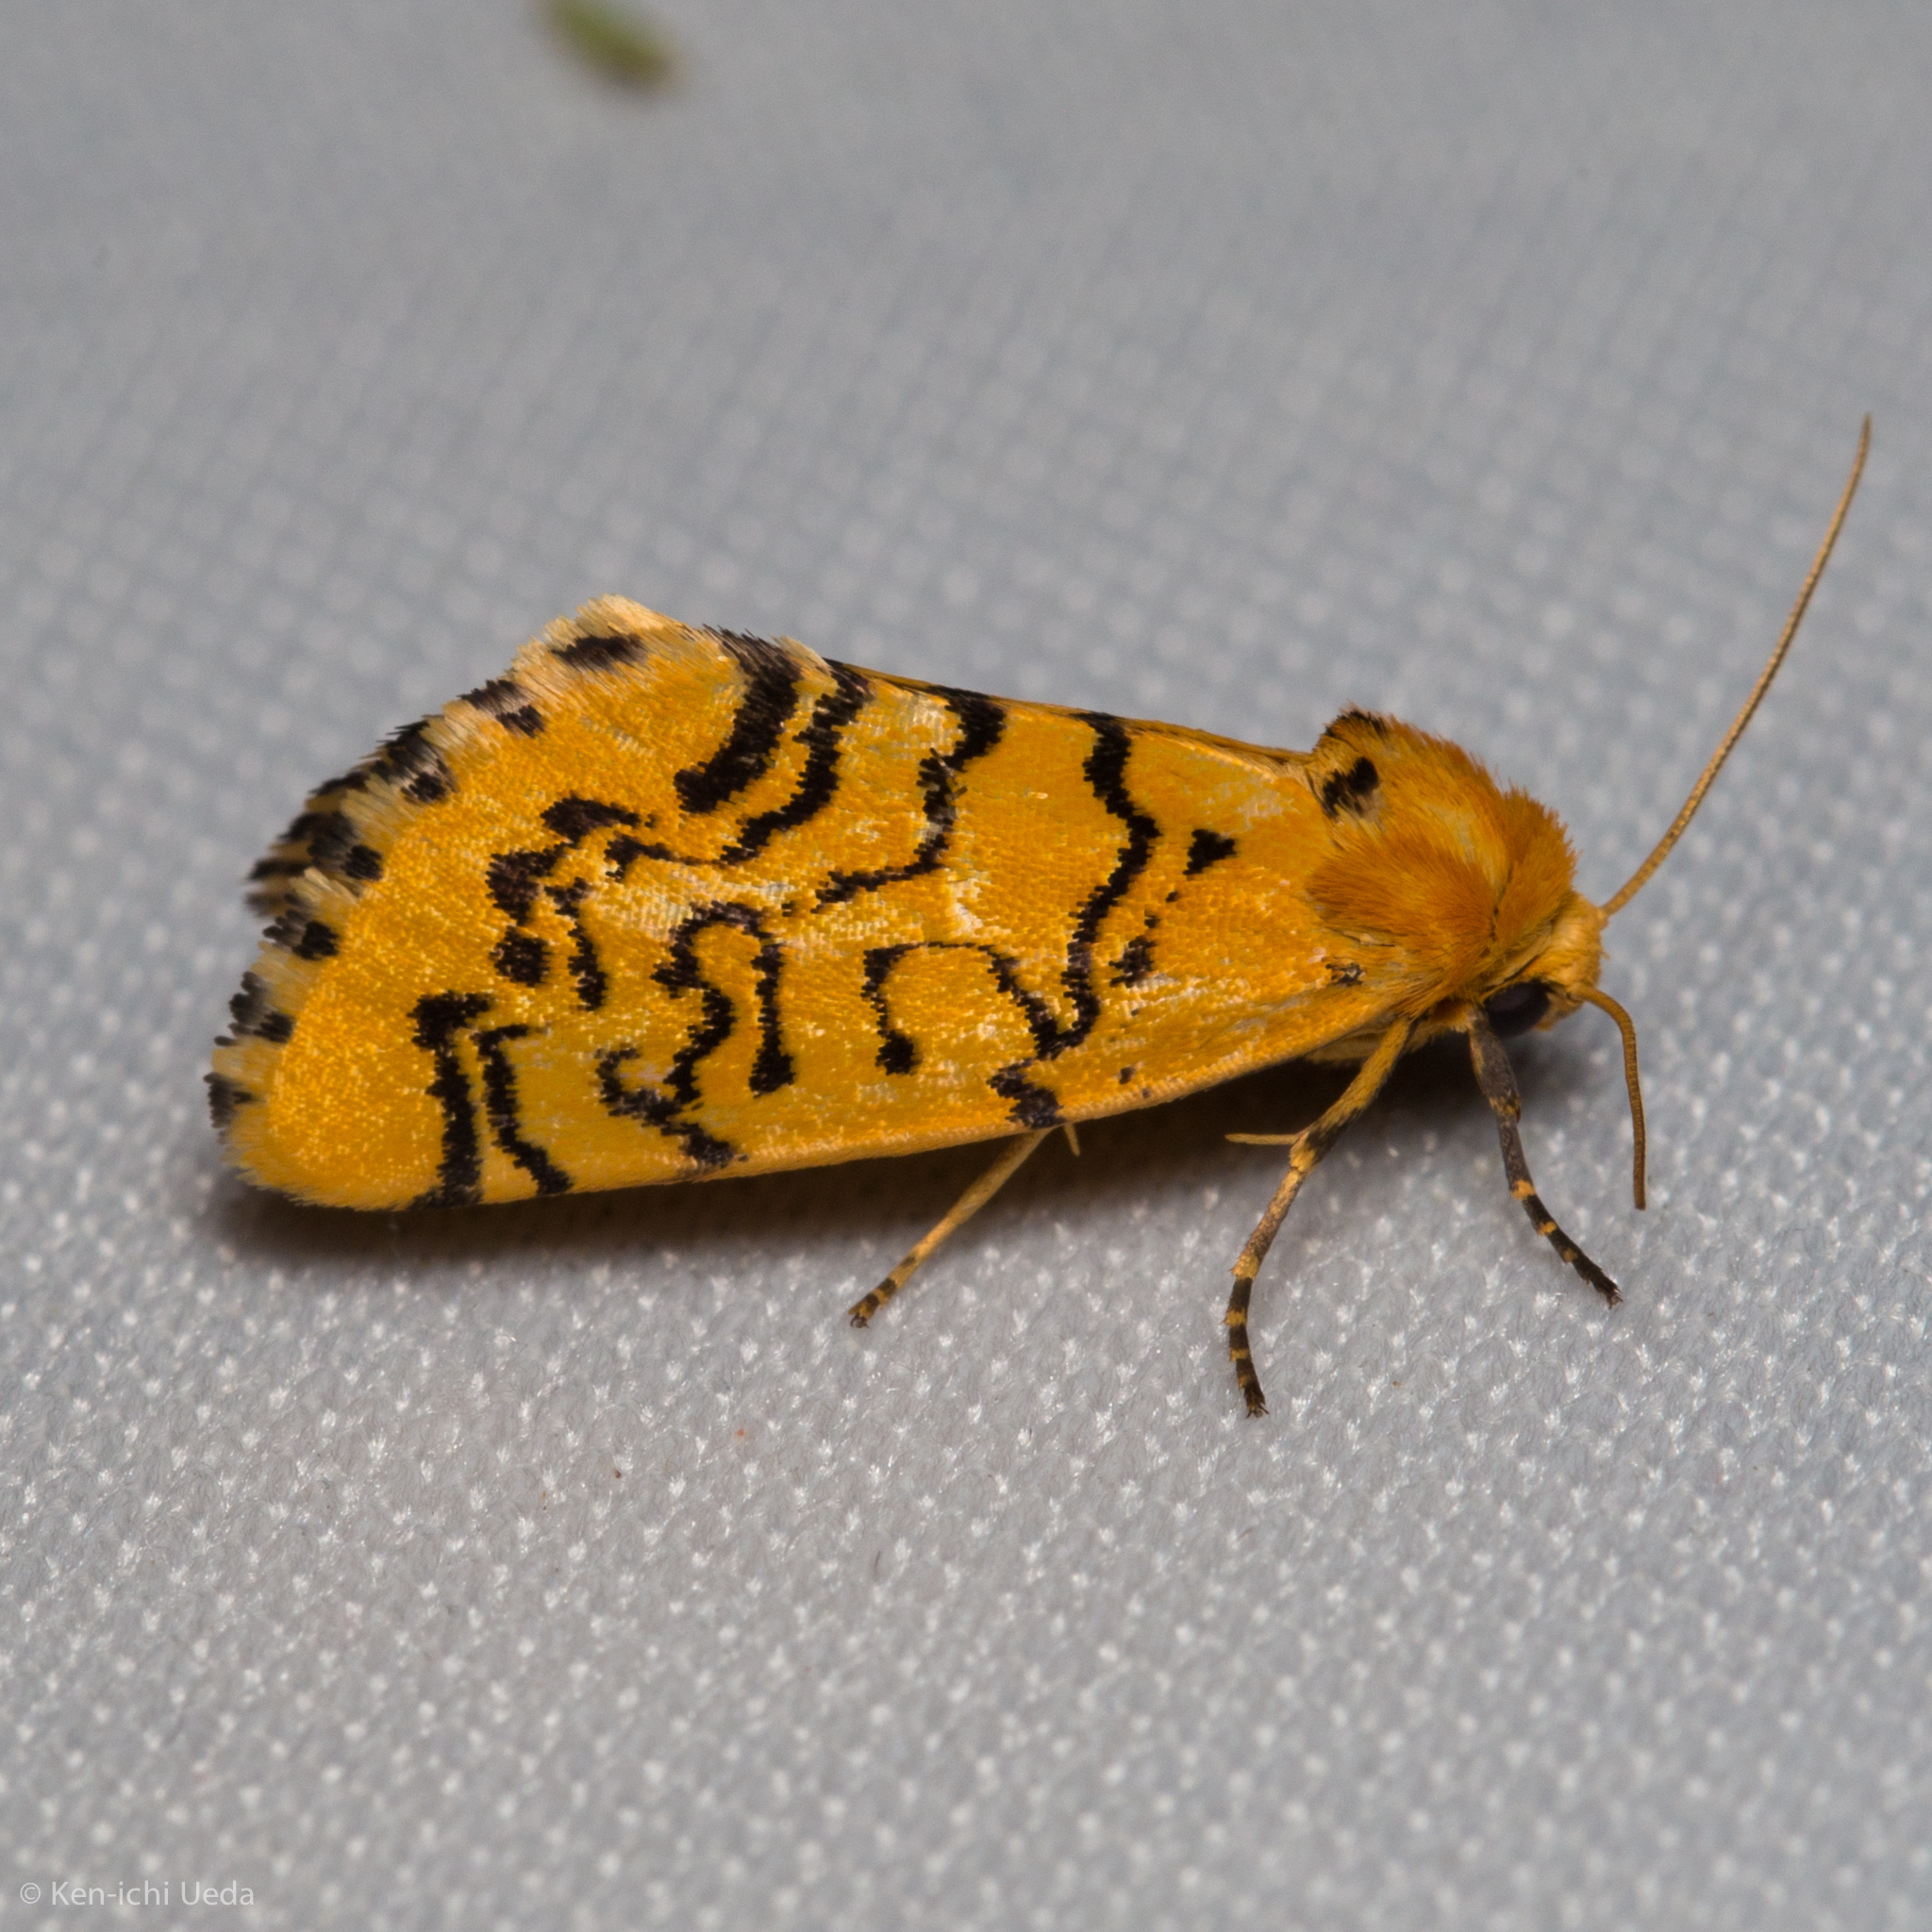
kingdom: Animalia
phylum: Arthropoda
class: Insecta
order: Lepidoptera
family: Noctuidae
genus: Chrysoecia
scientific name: Chrysoecia atrolinea
